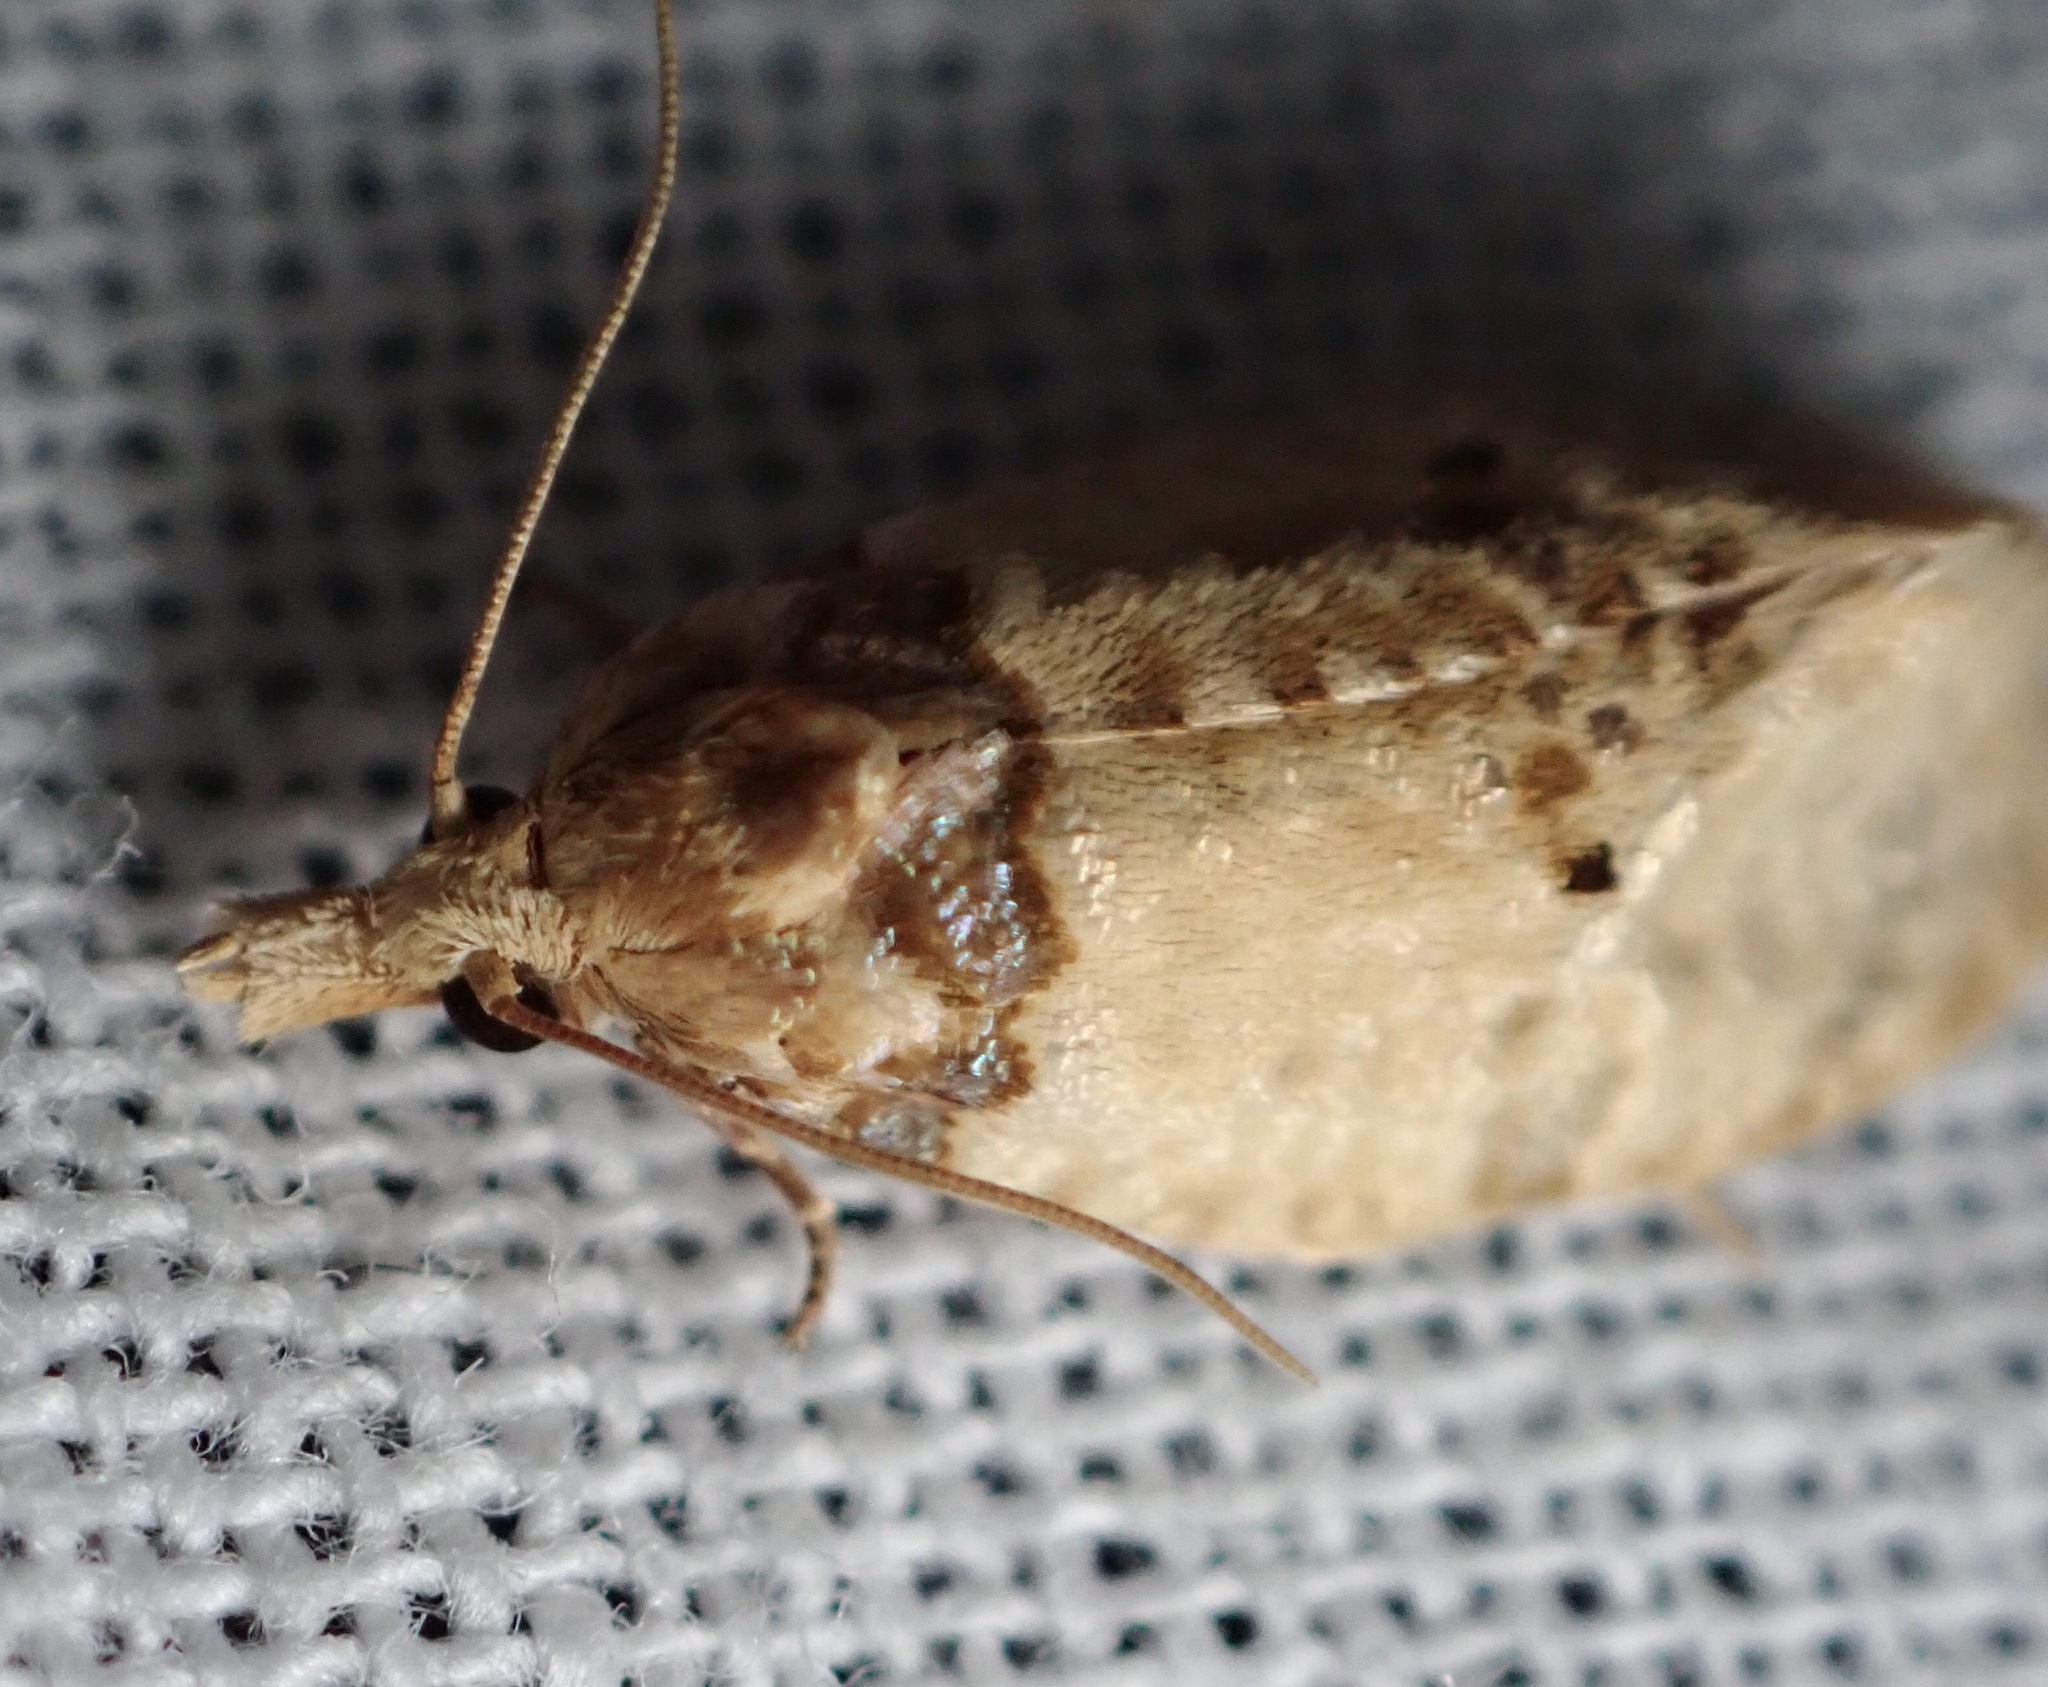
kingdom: Animalia
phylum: Arthropoda
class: Insecta
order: Lepidoptera
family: Tortricidae
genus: Henricus
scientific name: Henricus umbrabasana
